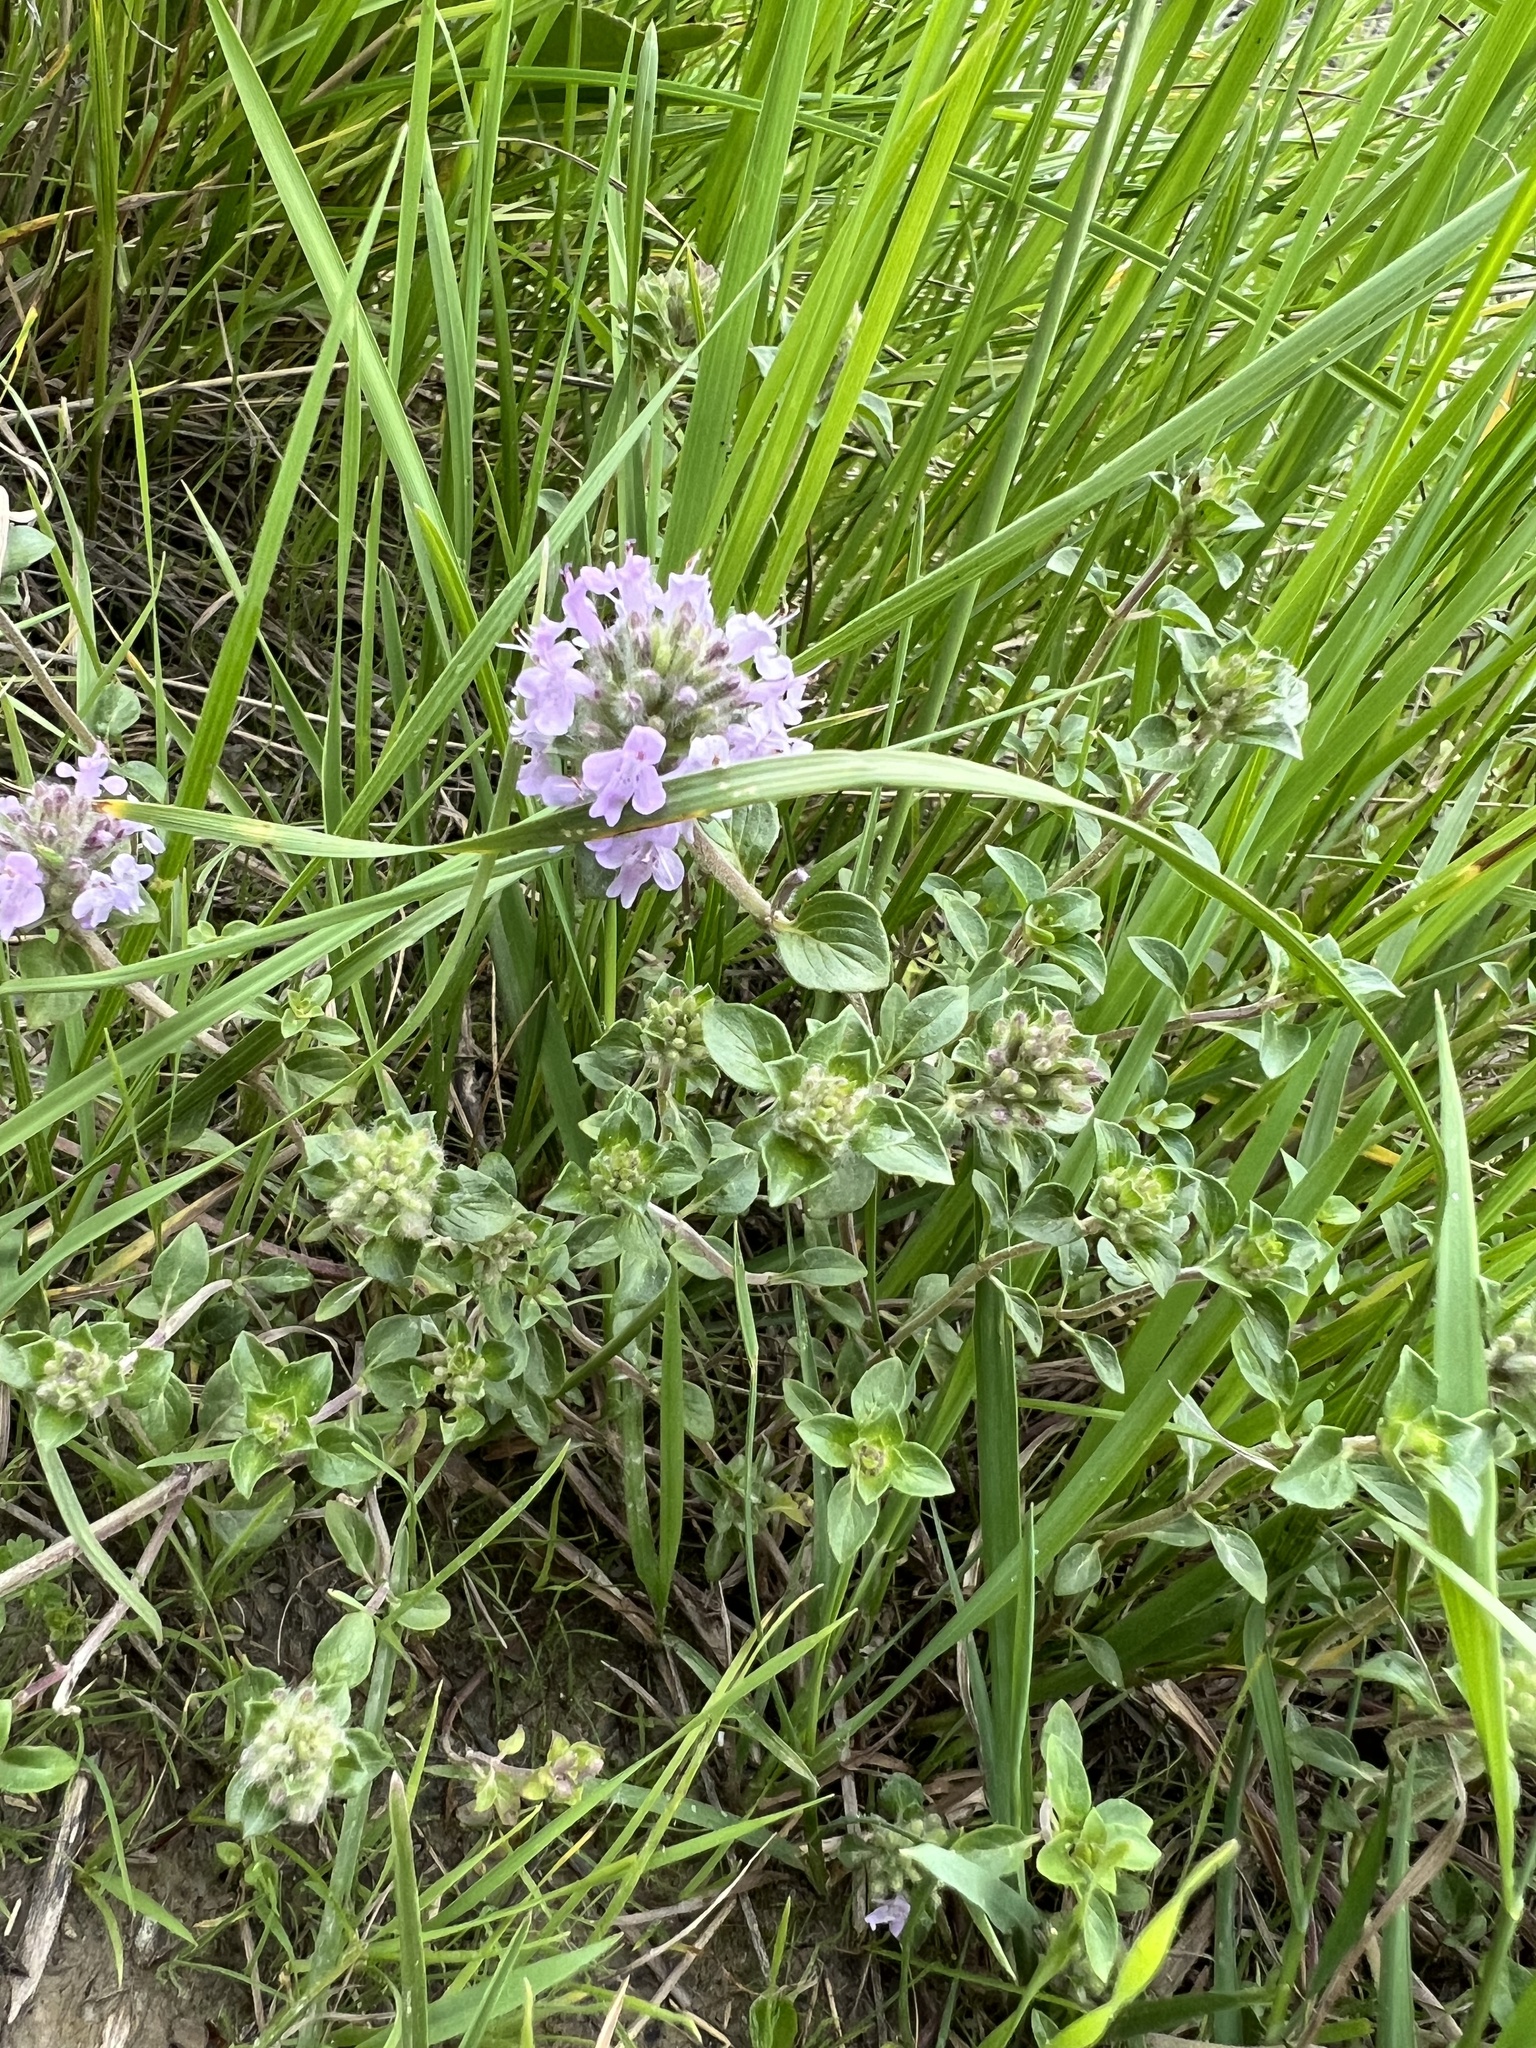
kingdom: Plantae
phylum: Tracheophyta
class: Magnoliopsida
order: Lamiales
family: Lamiaceae
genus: Ziziphora
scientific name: Ziziphora clinopodioides
